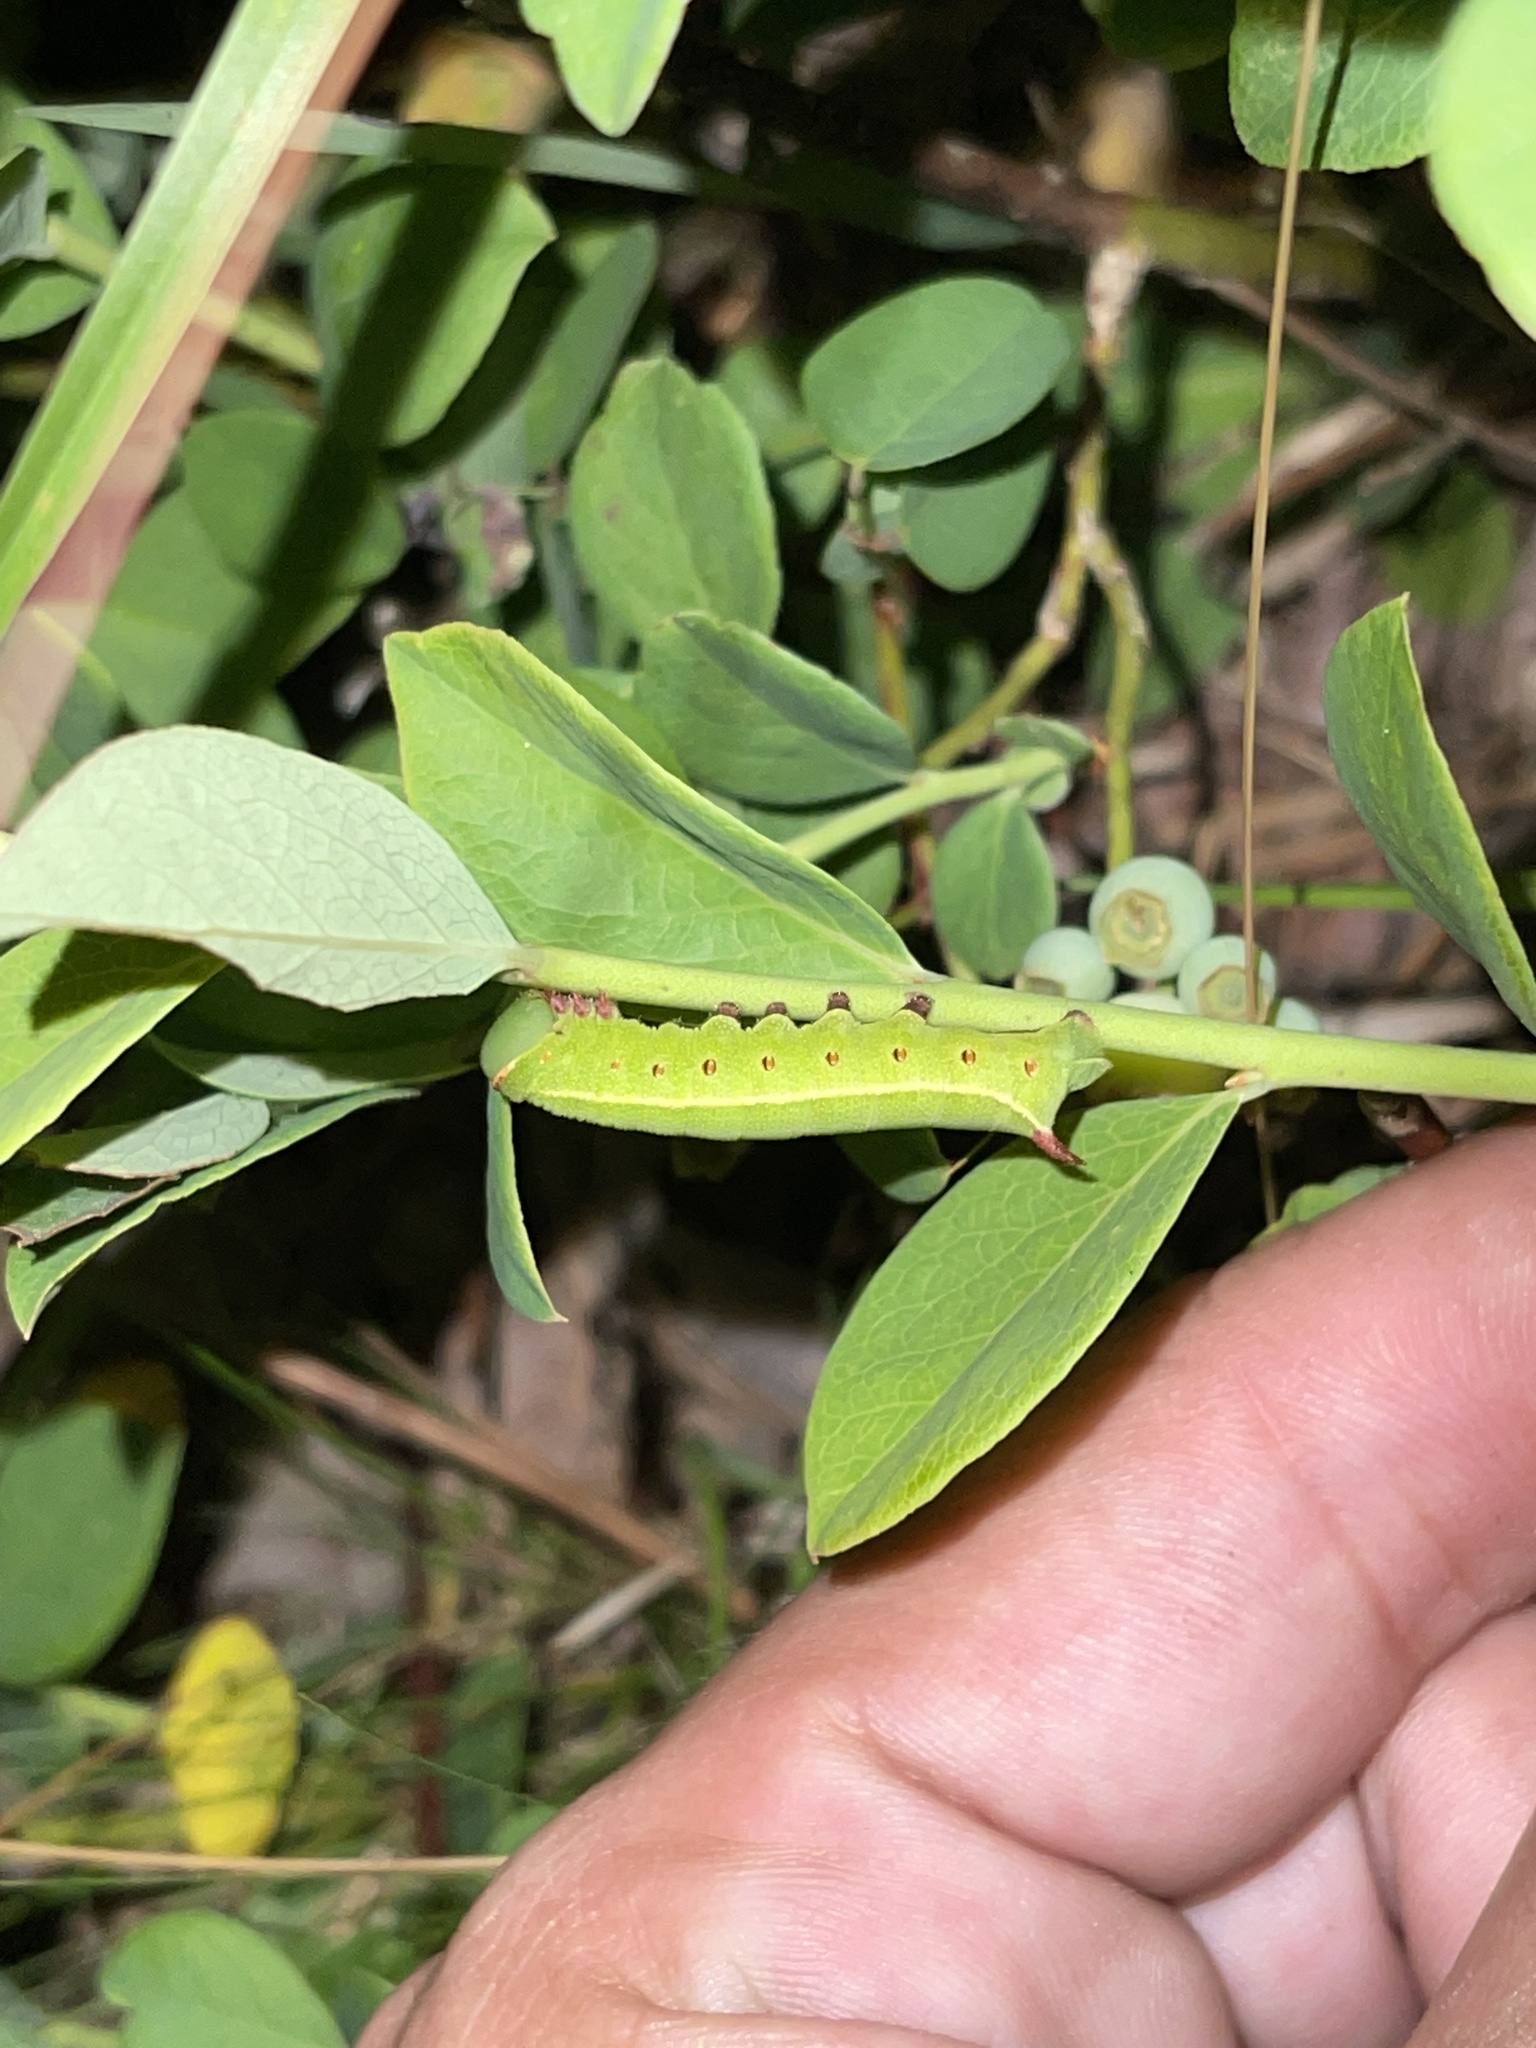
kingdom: Animalia
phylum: Arthropoda
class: Insecta
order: Lepidoptera
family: Sphingidae
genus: Hemaris
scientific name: Hemaris gracilis
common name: Graceful clearwing
